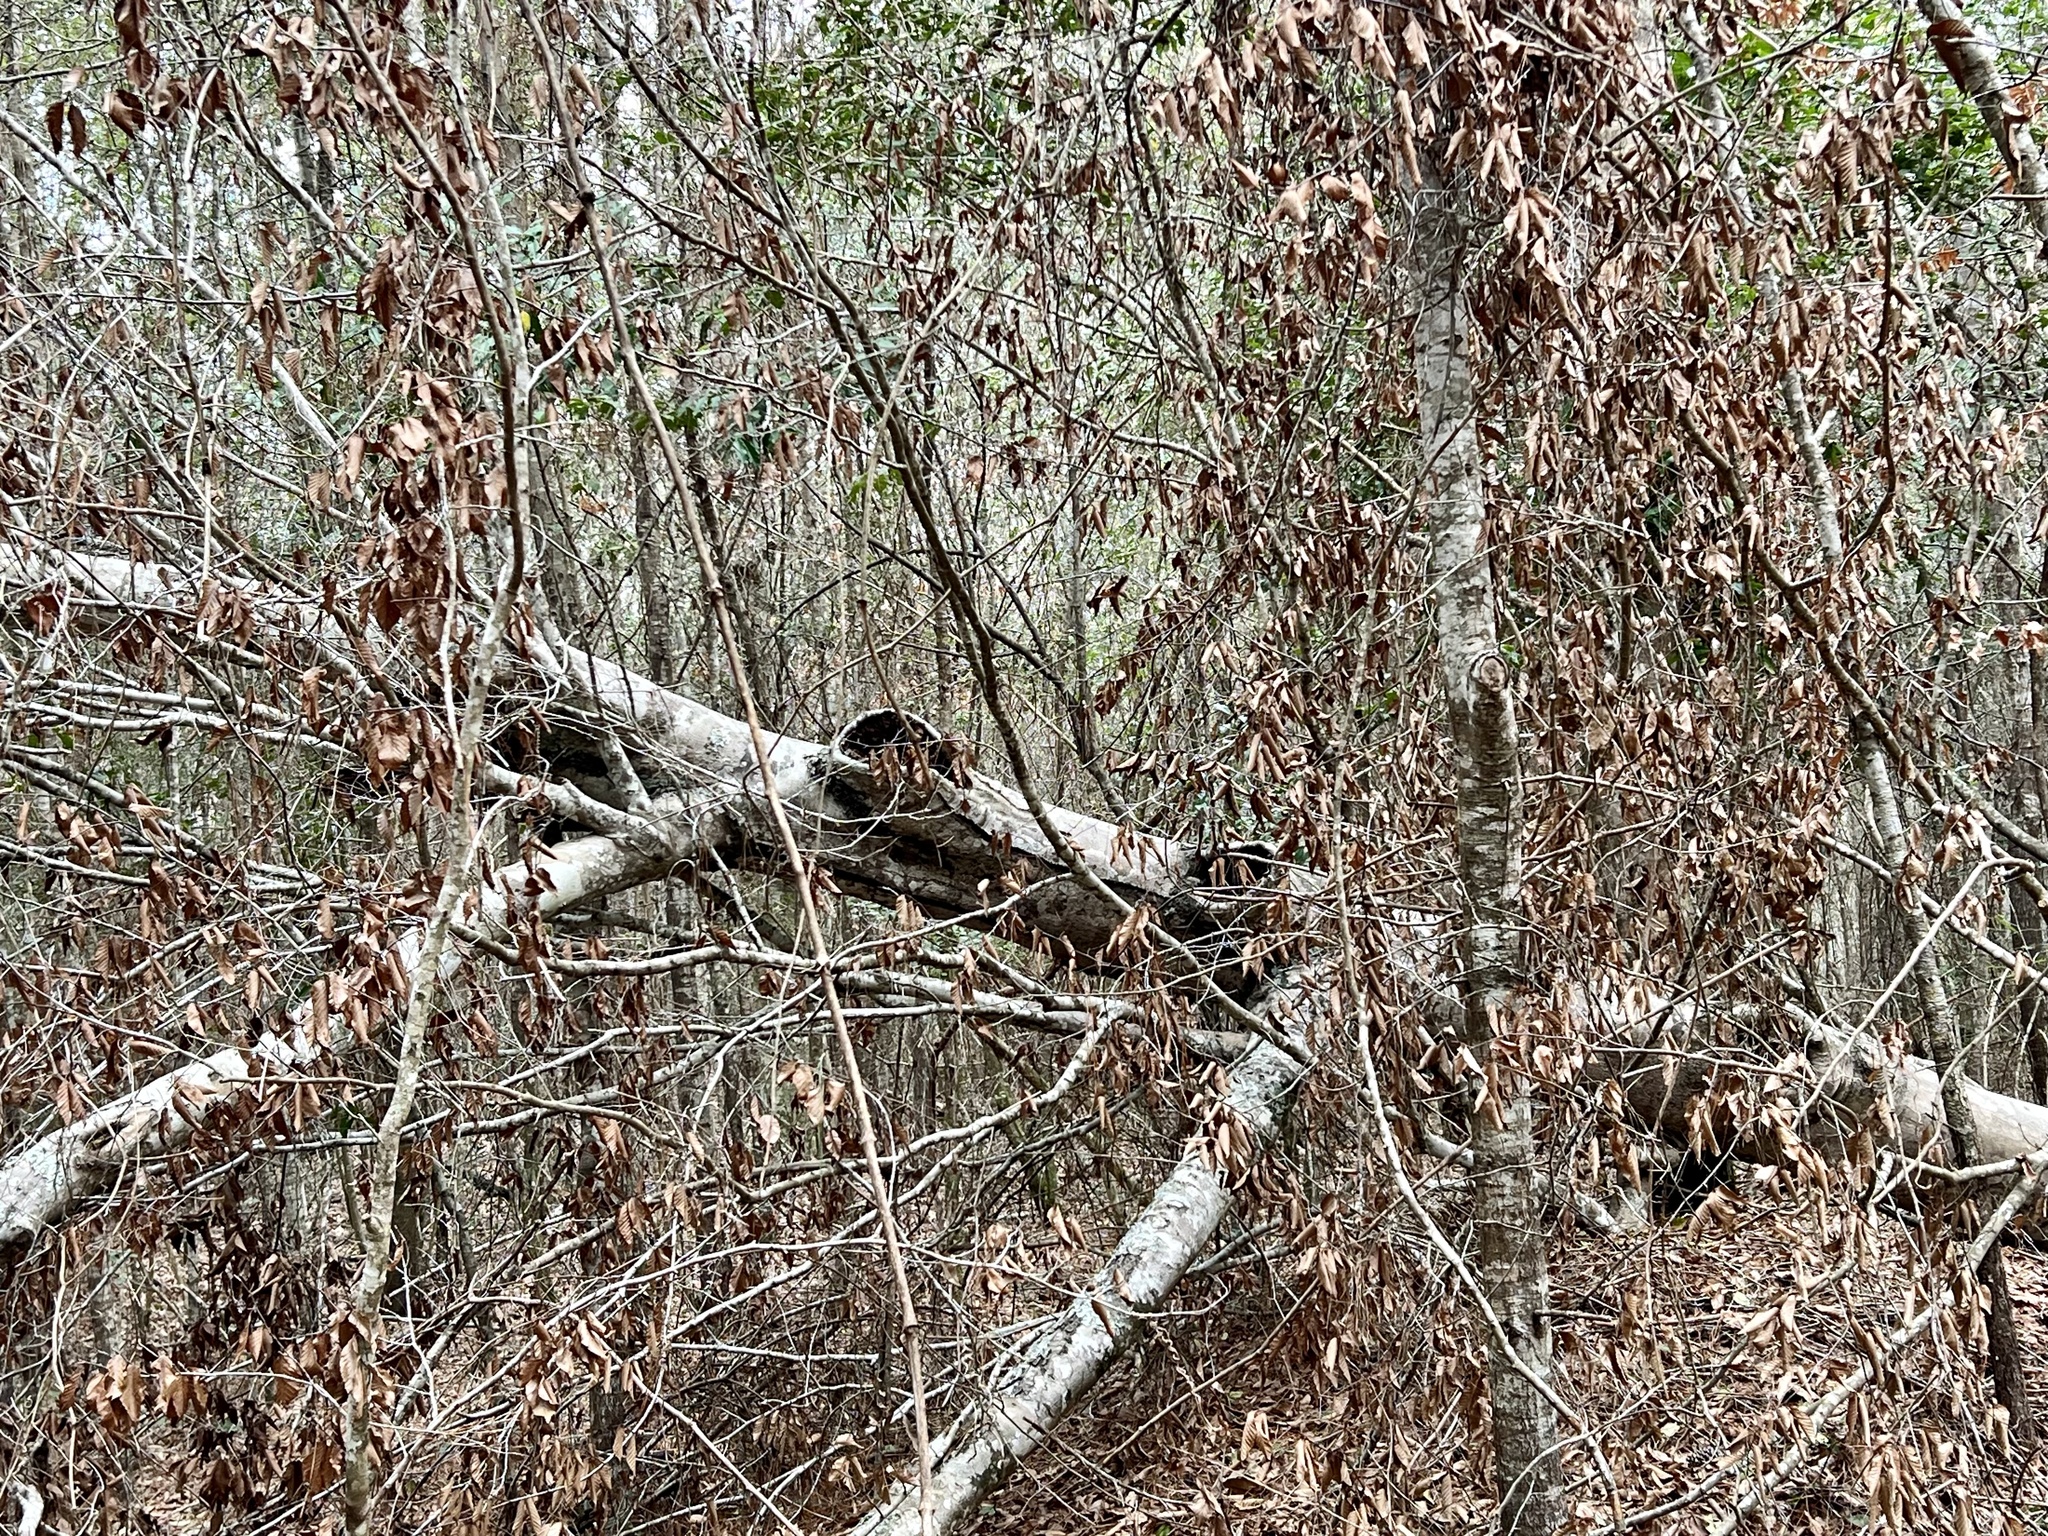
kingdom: Plantae
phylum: Tracheophyta
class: Magnoliopsida
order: Fagales
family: Fagaceae
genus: Fagus
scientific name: Fagus grandifolia
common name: American beech
